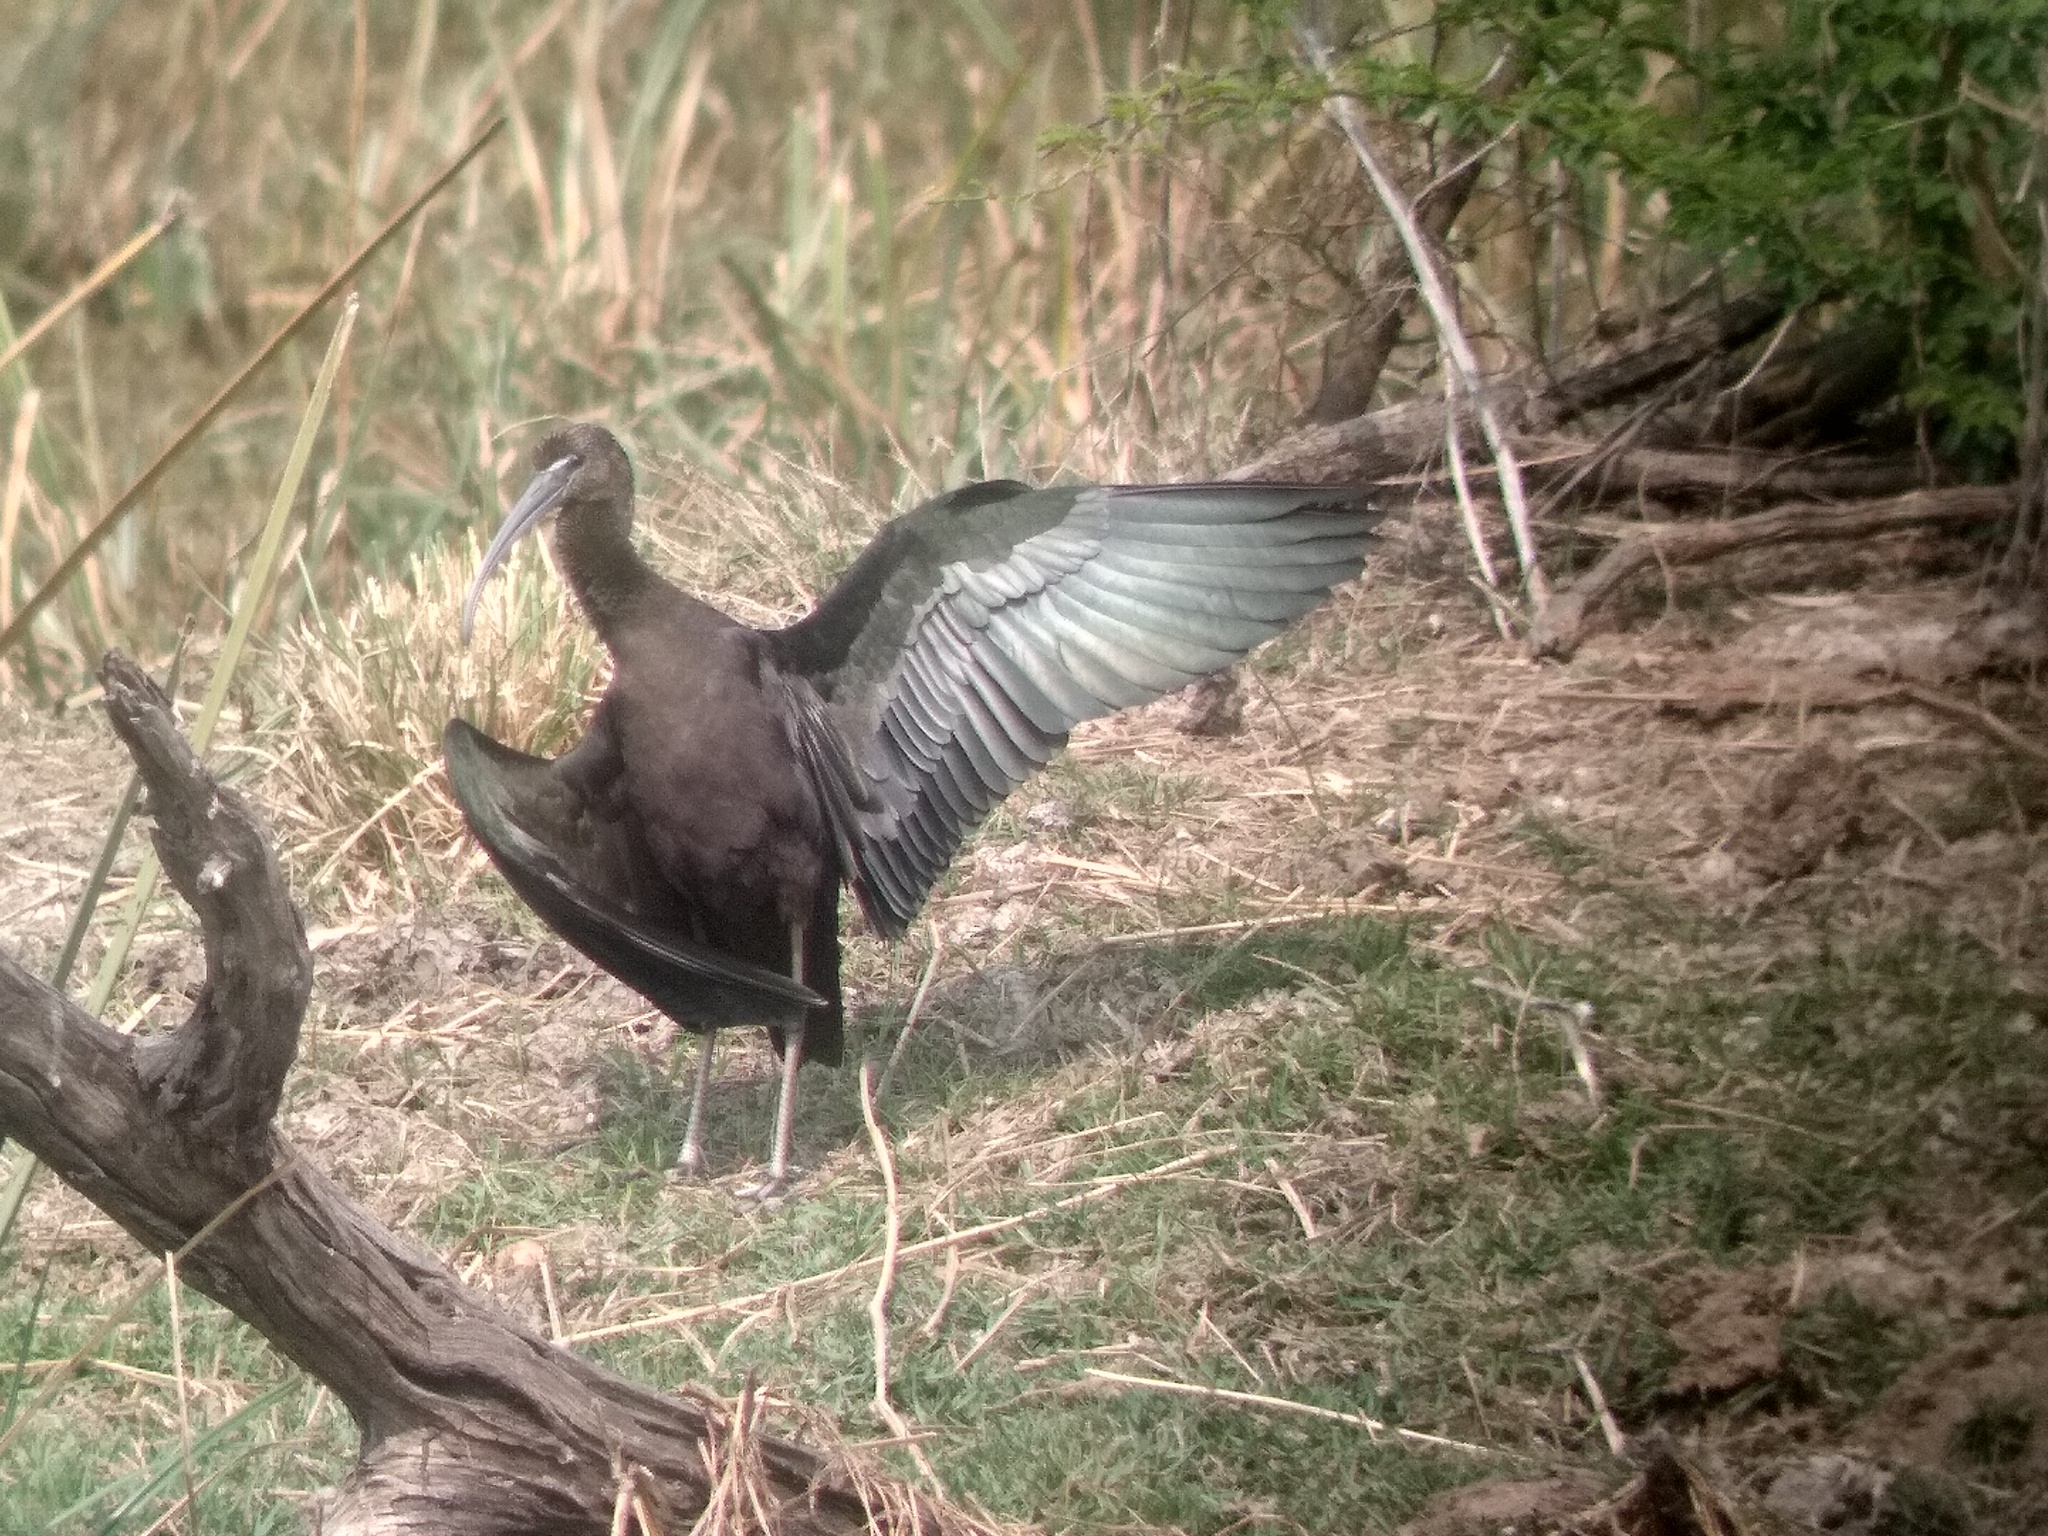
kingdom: Animalia
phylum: Chordata
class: Aves
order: Pelecaniformes
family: Threskiornithidae
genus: Plegadis
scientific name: Plegadis falcinellus
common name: Glossy ibis
